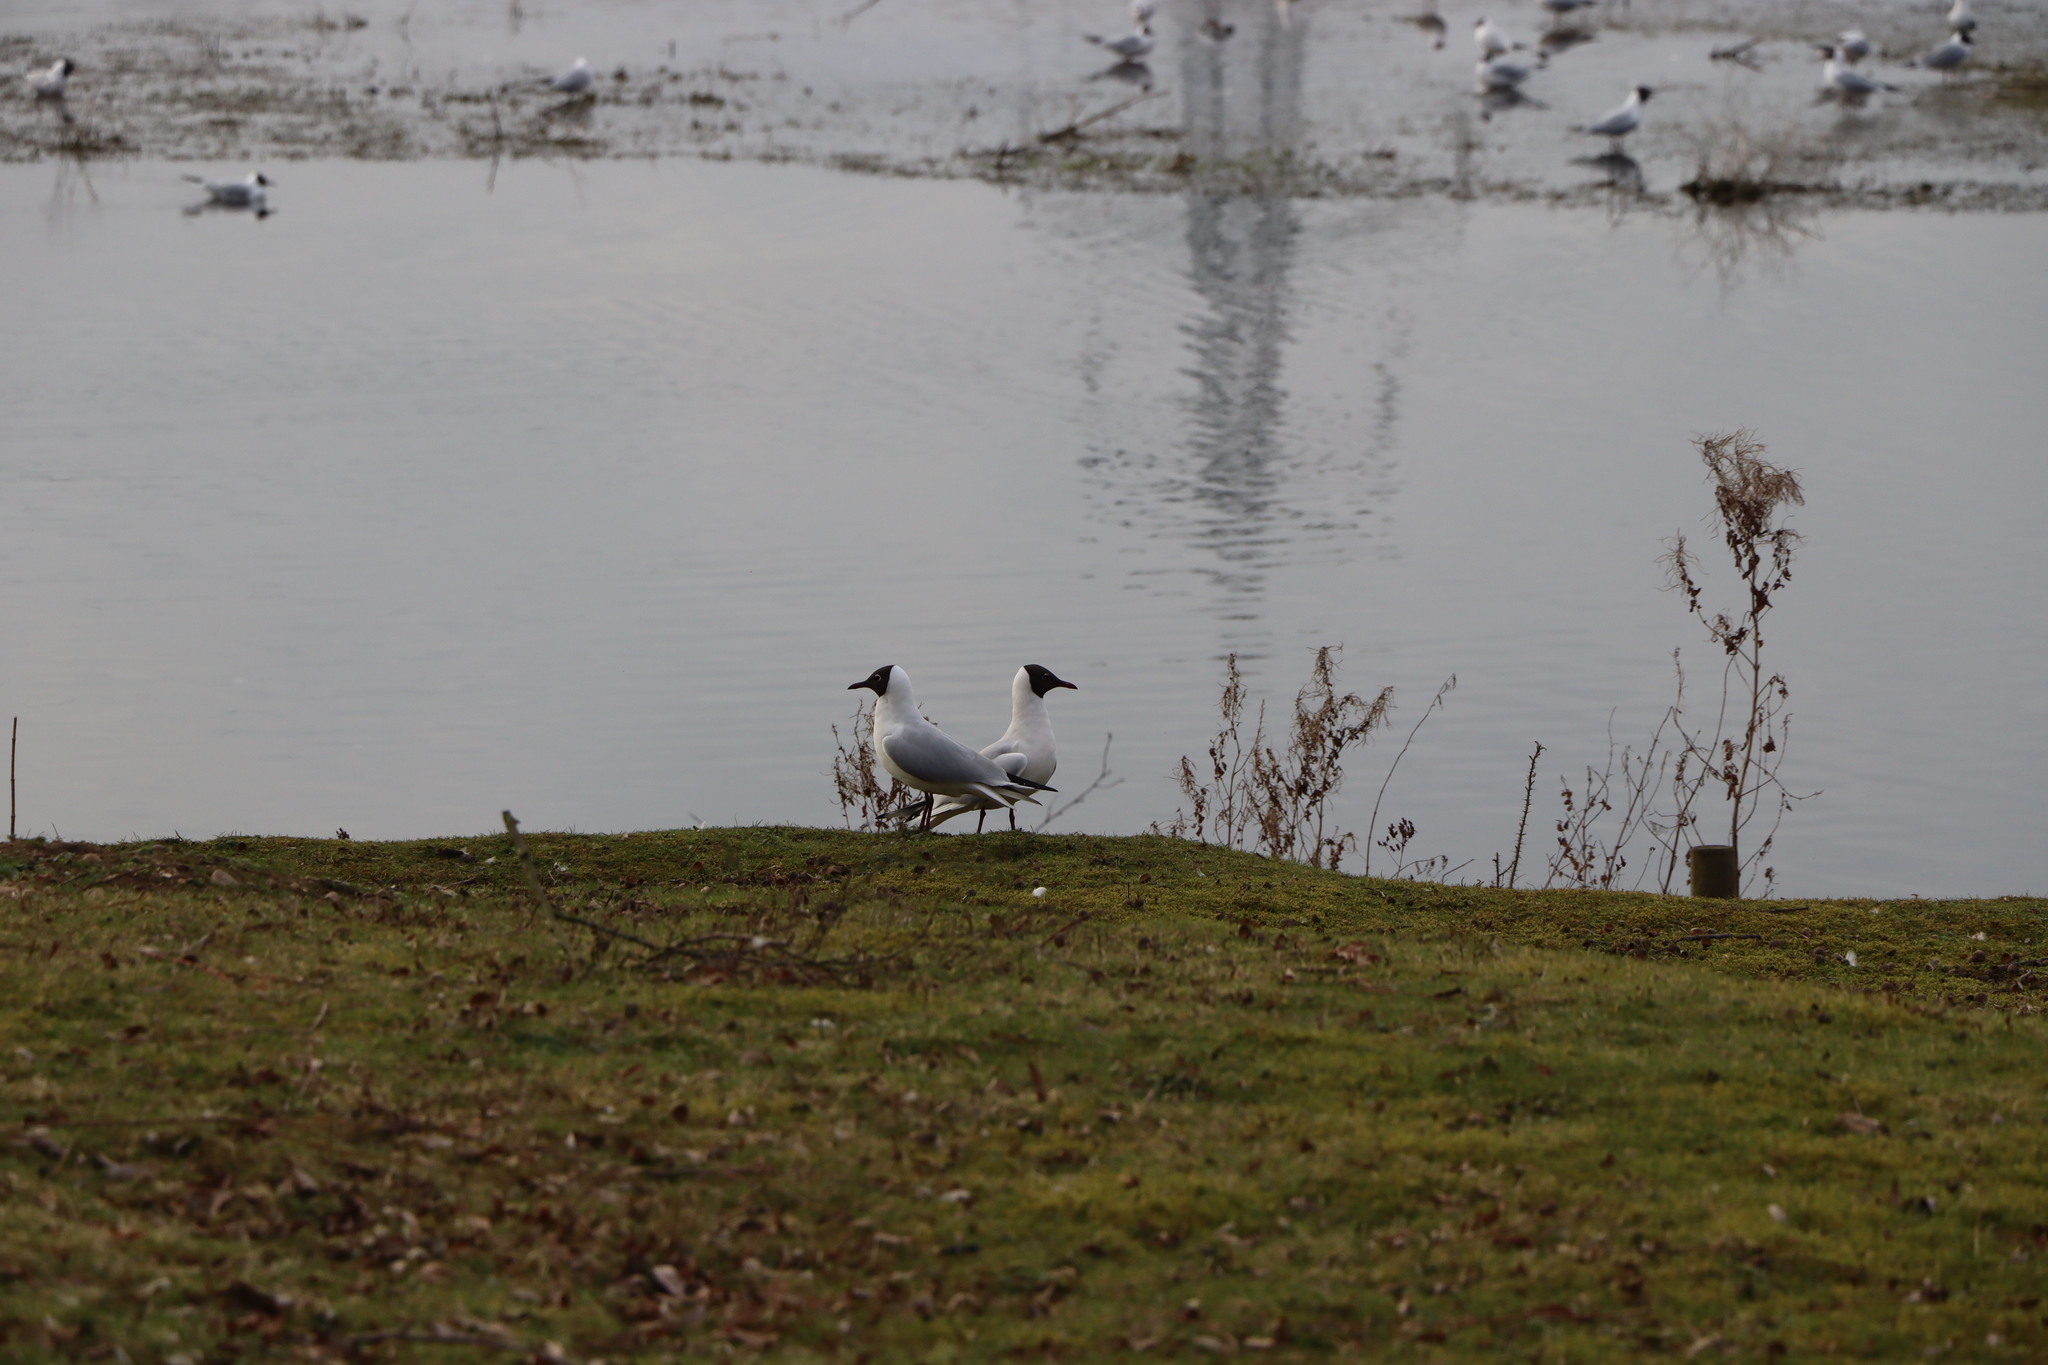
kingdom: Animalia
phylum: Chordata
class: Aves
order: Charadriiformes
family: Laridae
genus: Chroicocephalus
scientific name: Chroicocephalus ridibundus
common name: Black-headed gull
